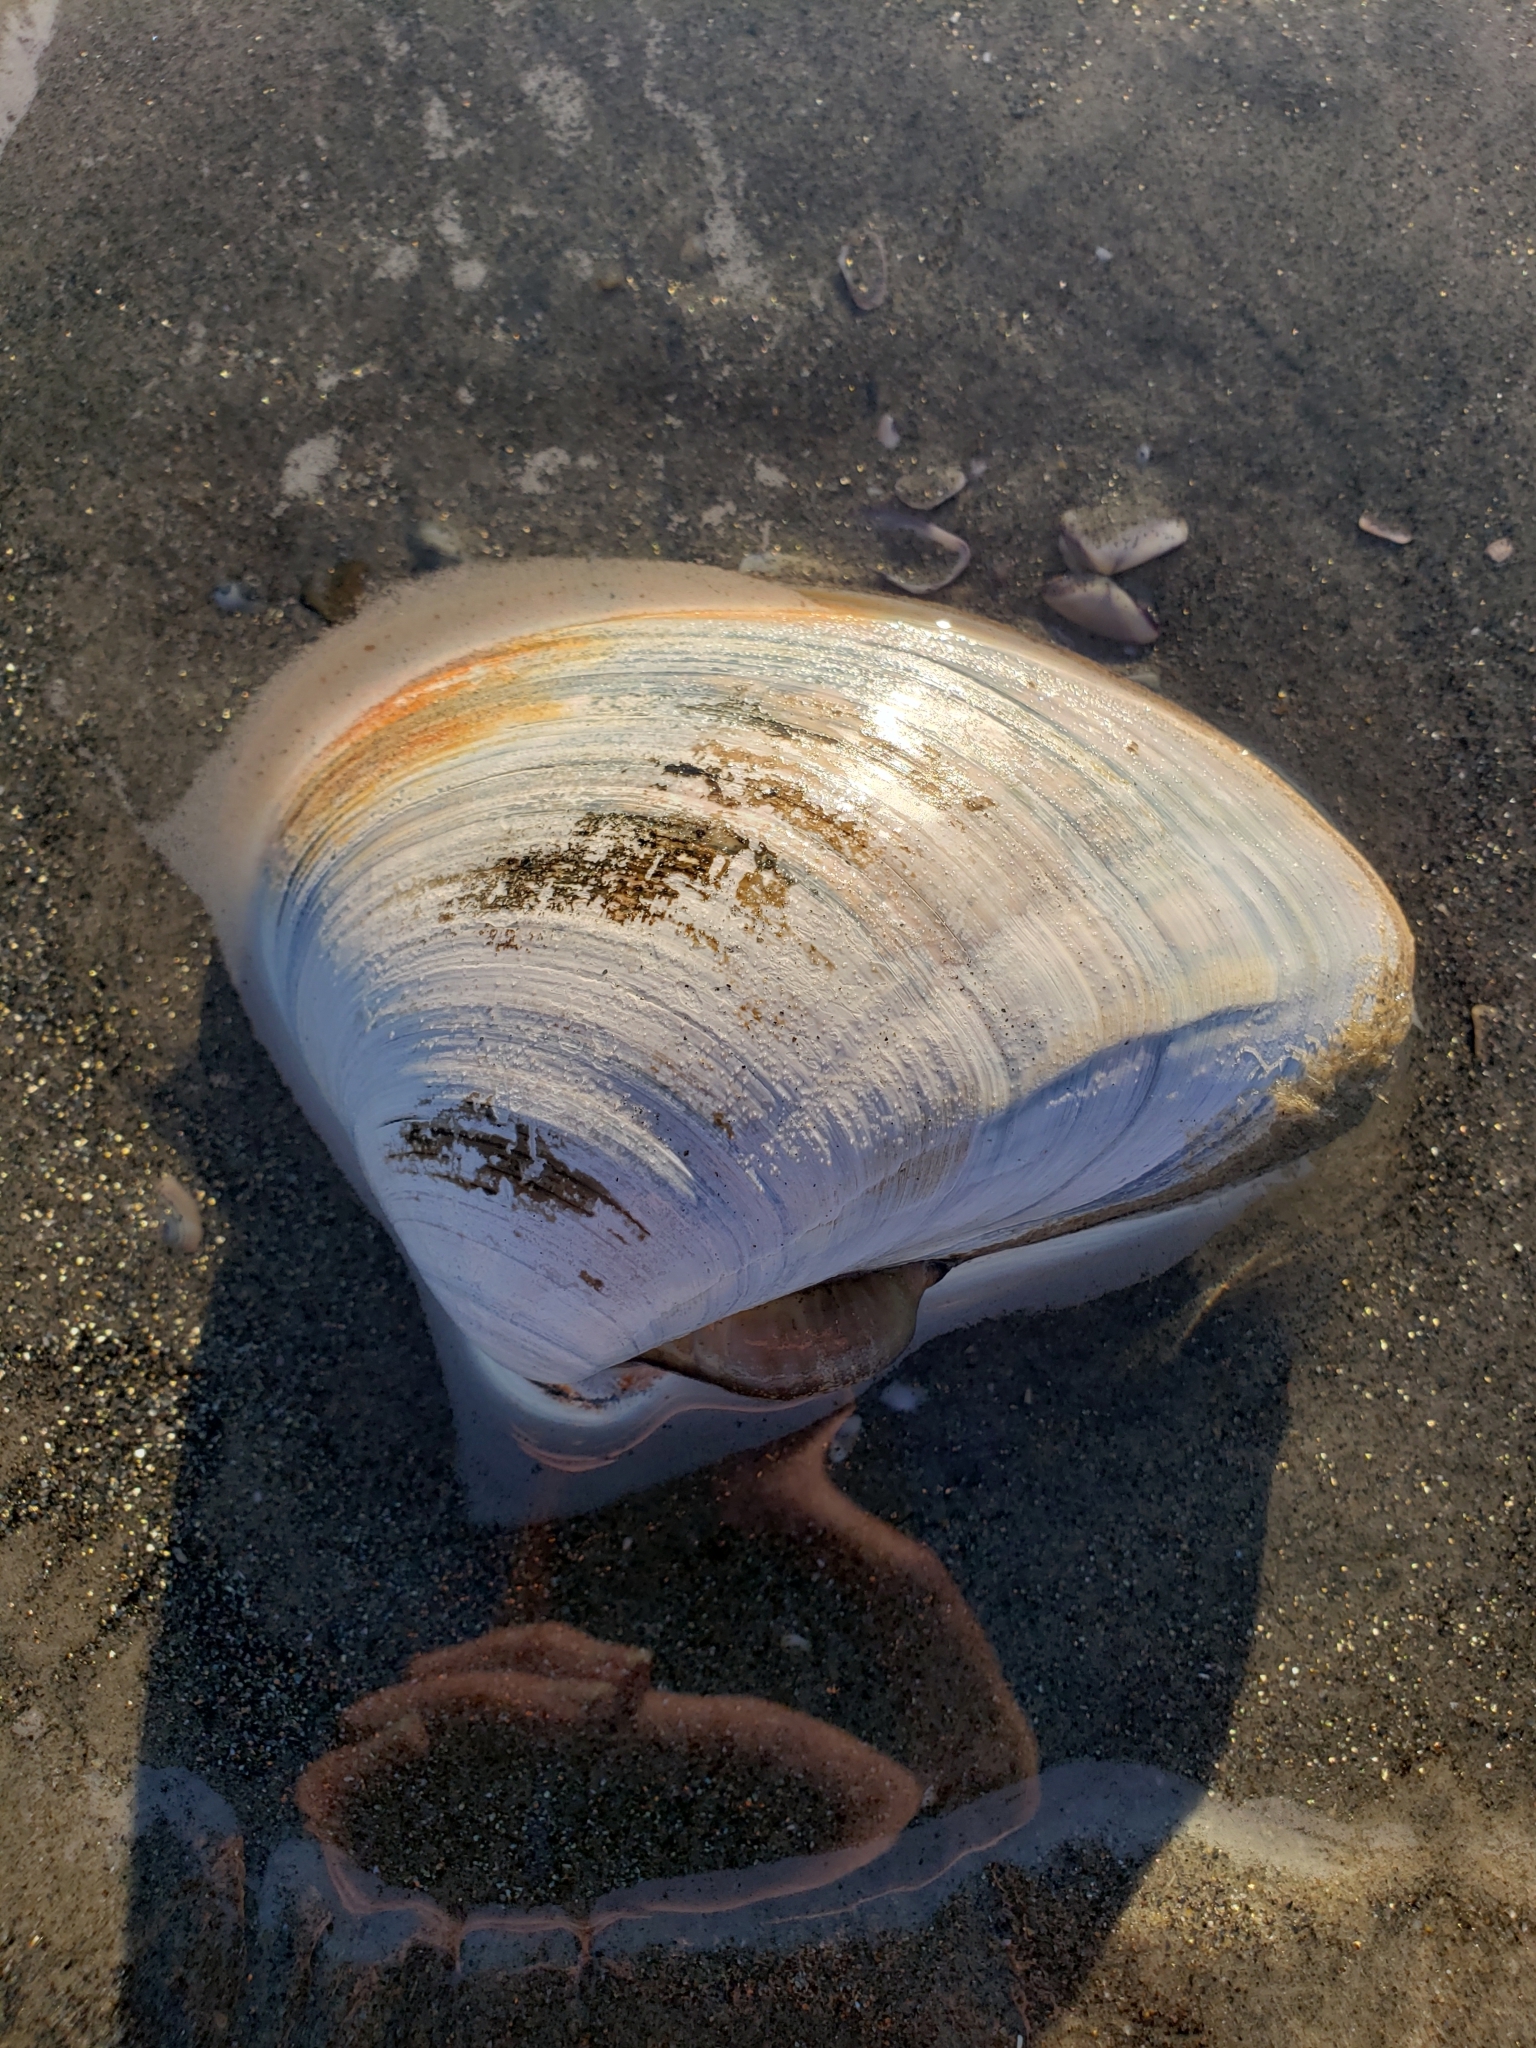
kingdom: Animalia
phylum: Mollusca
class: Bivalvia
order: Venerida
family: Veneridae
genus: Tivela
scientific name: Tivela stultorum
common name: Pismo clam
